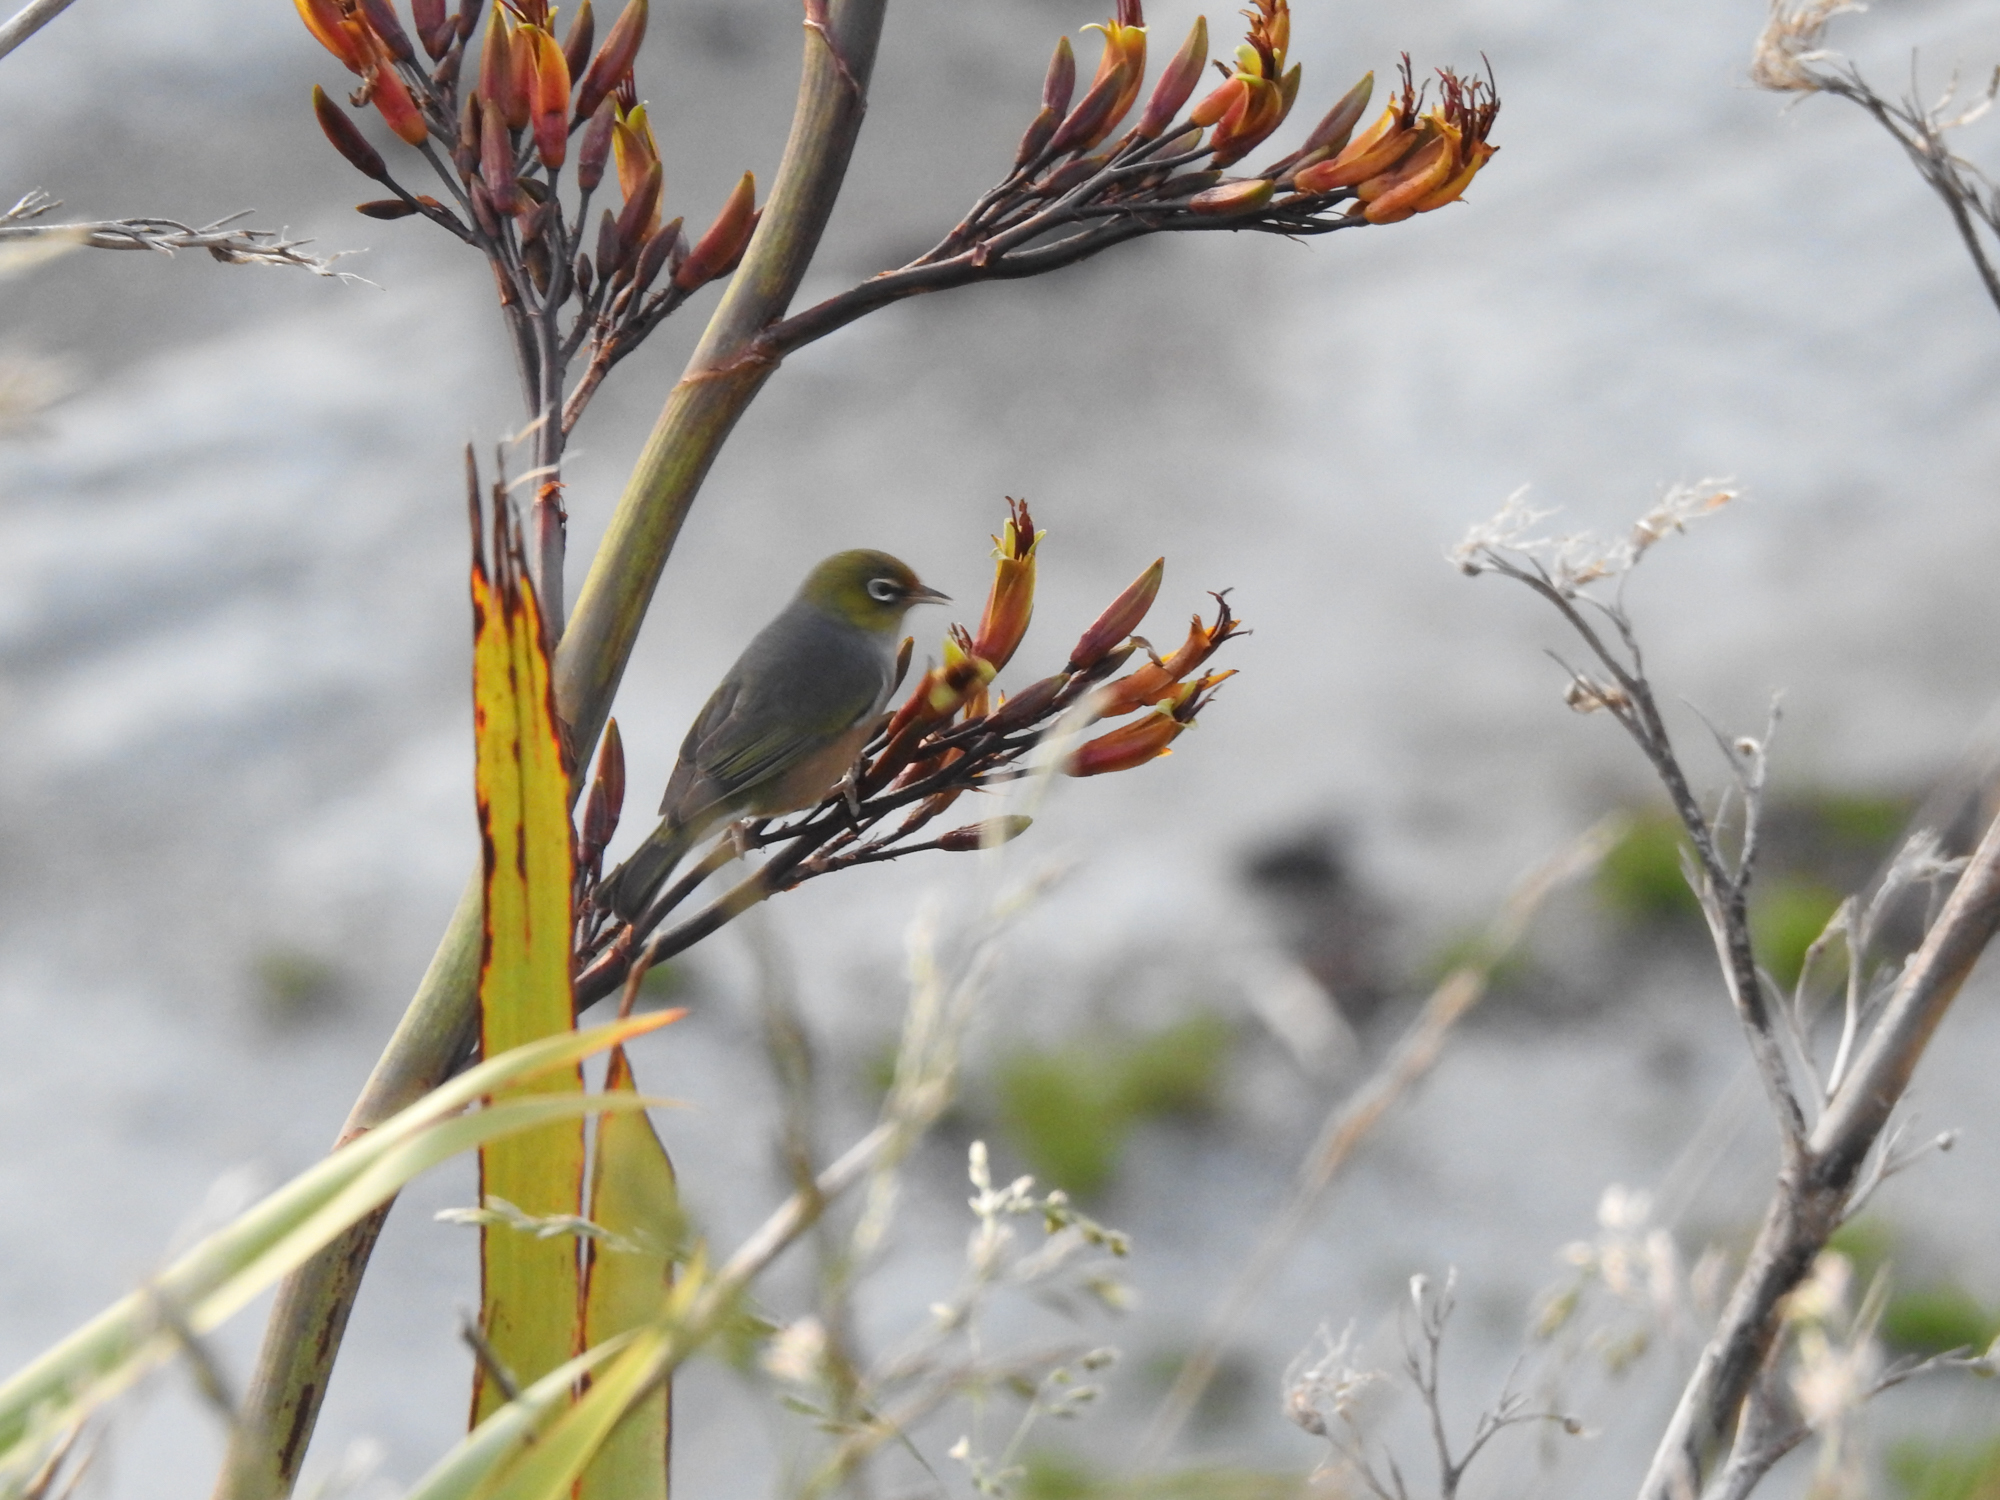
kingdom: Animalia
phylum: Chordata
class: Aves
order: Passeriformes
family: Zosteropidae
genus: Zosterops
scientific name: Zosterops lateralis
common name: Silvereye
